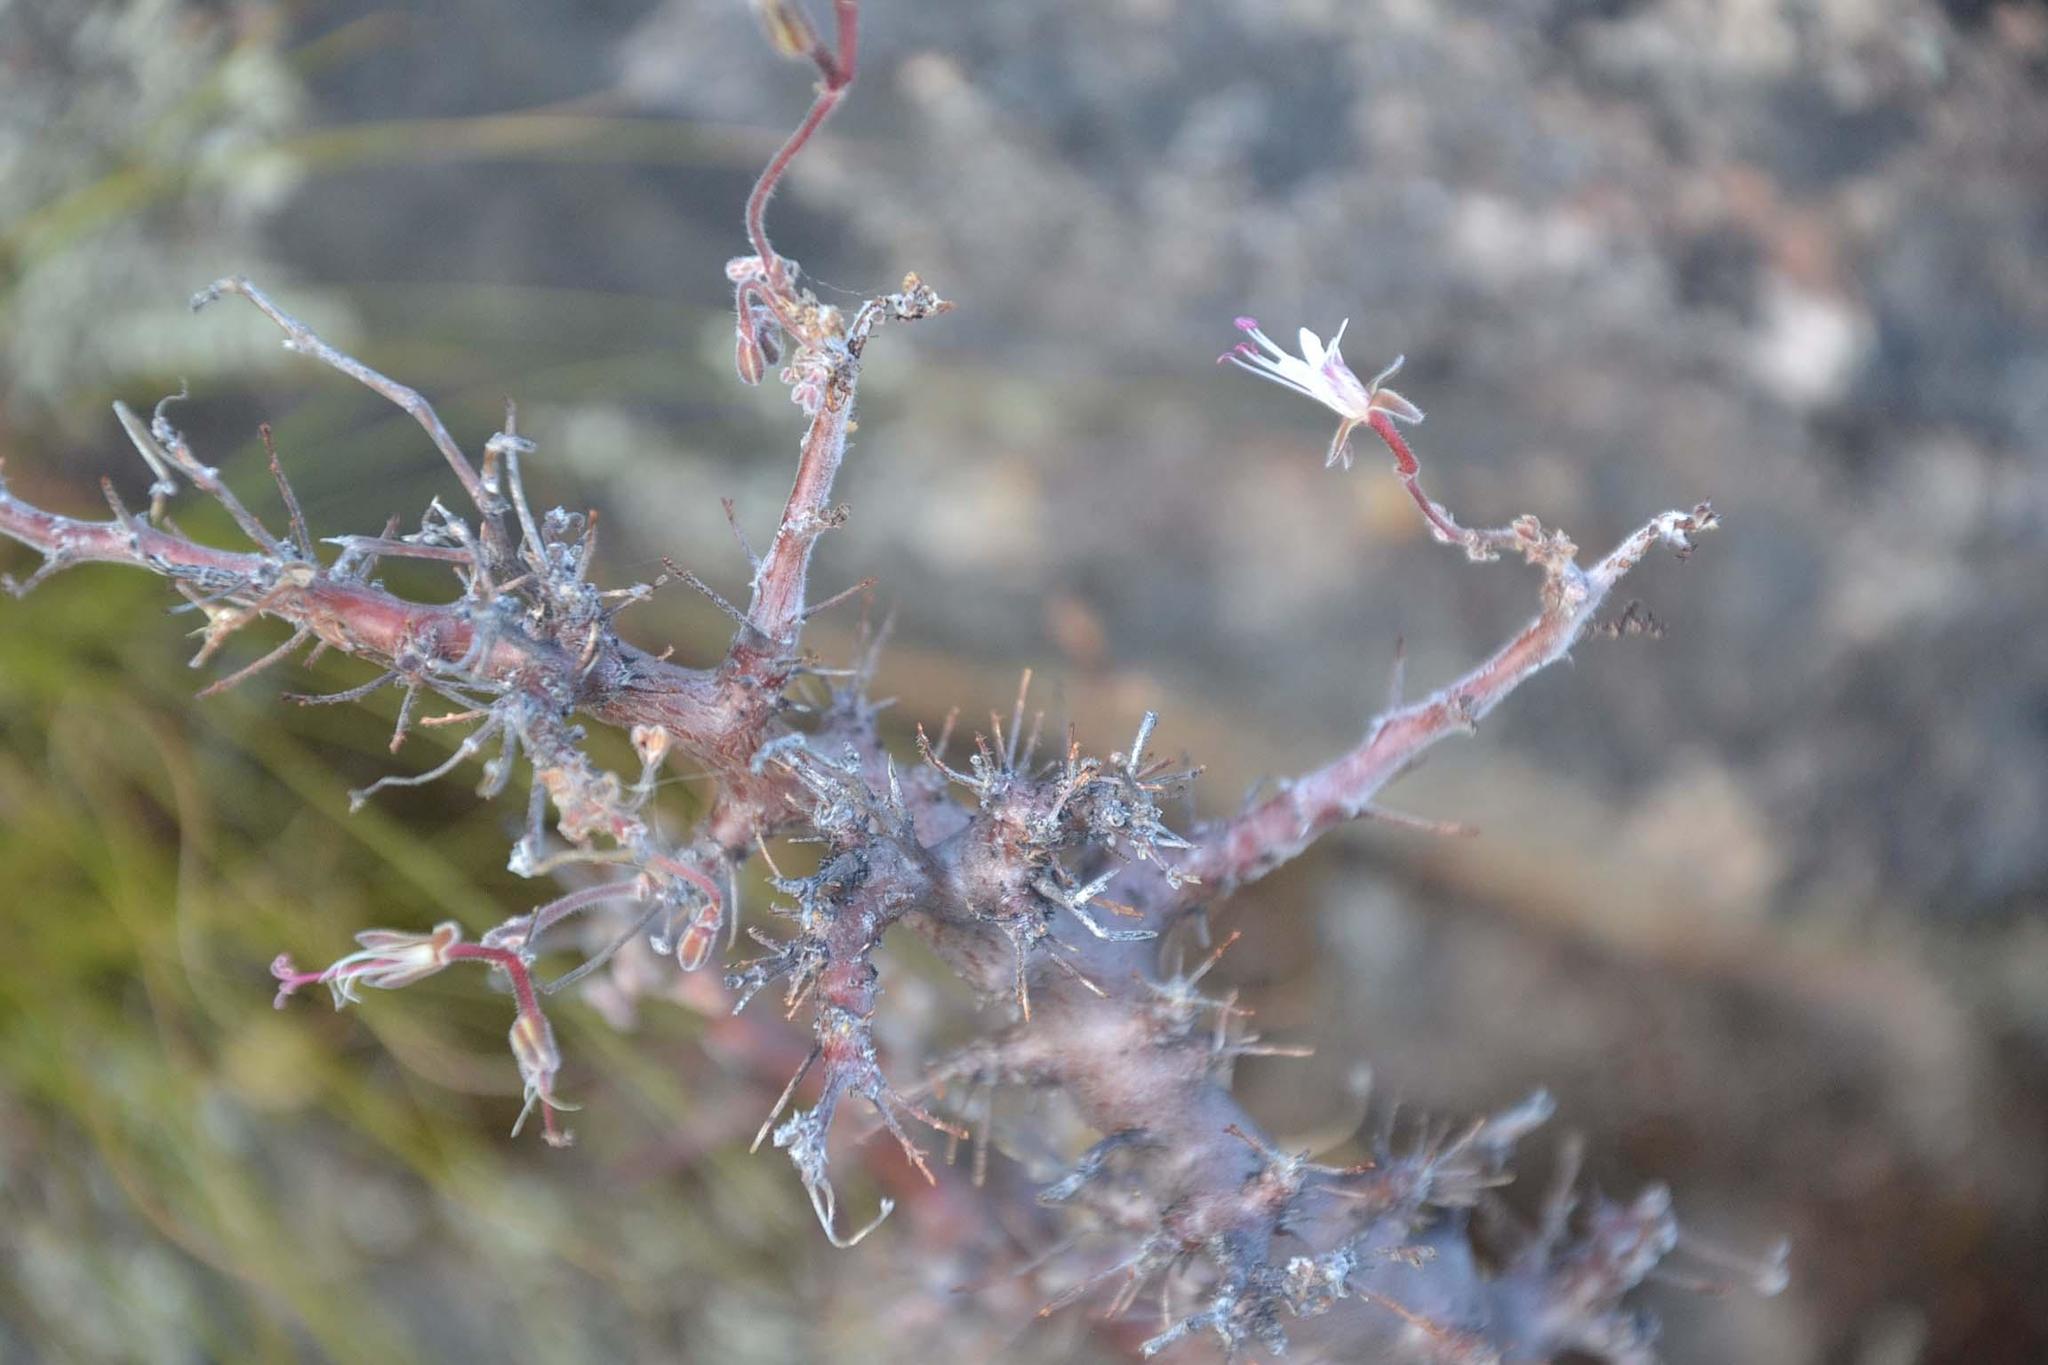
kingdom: Plantae
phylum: Tracheophyta
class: Magnoliopsida
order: Geraniales
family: Geraniaceae
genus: Pelargonium
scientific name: Pelargonium alternans
